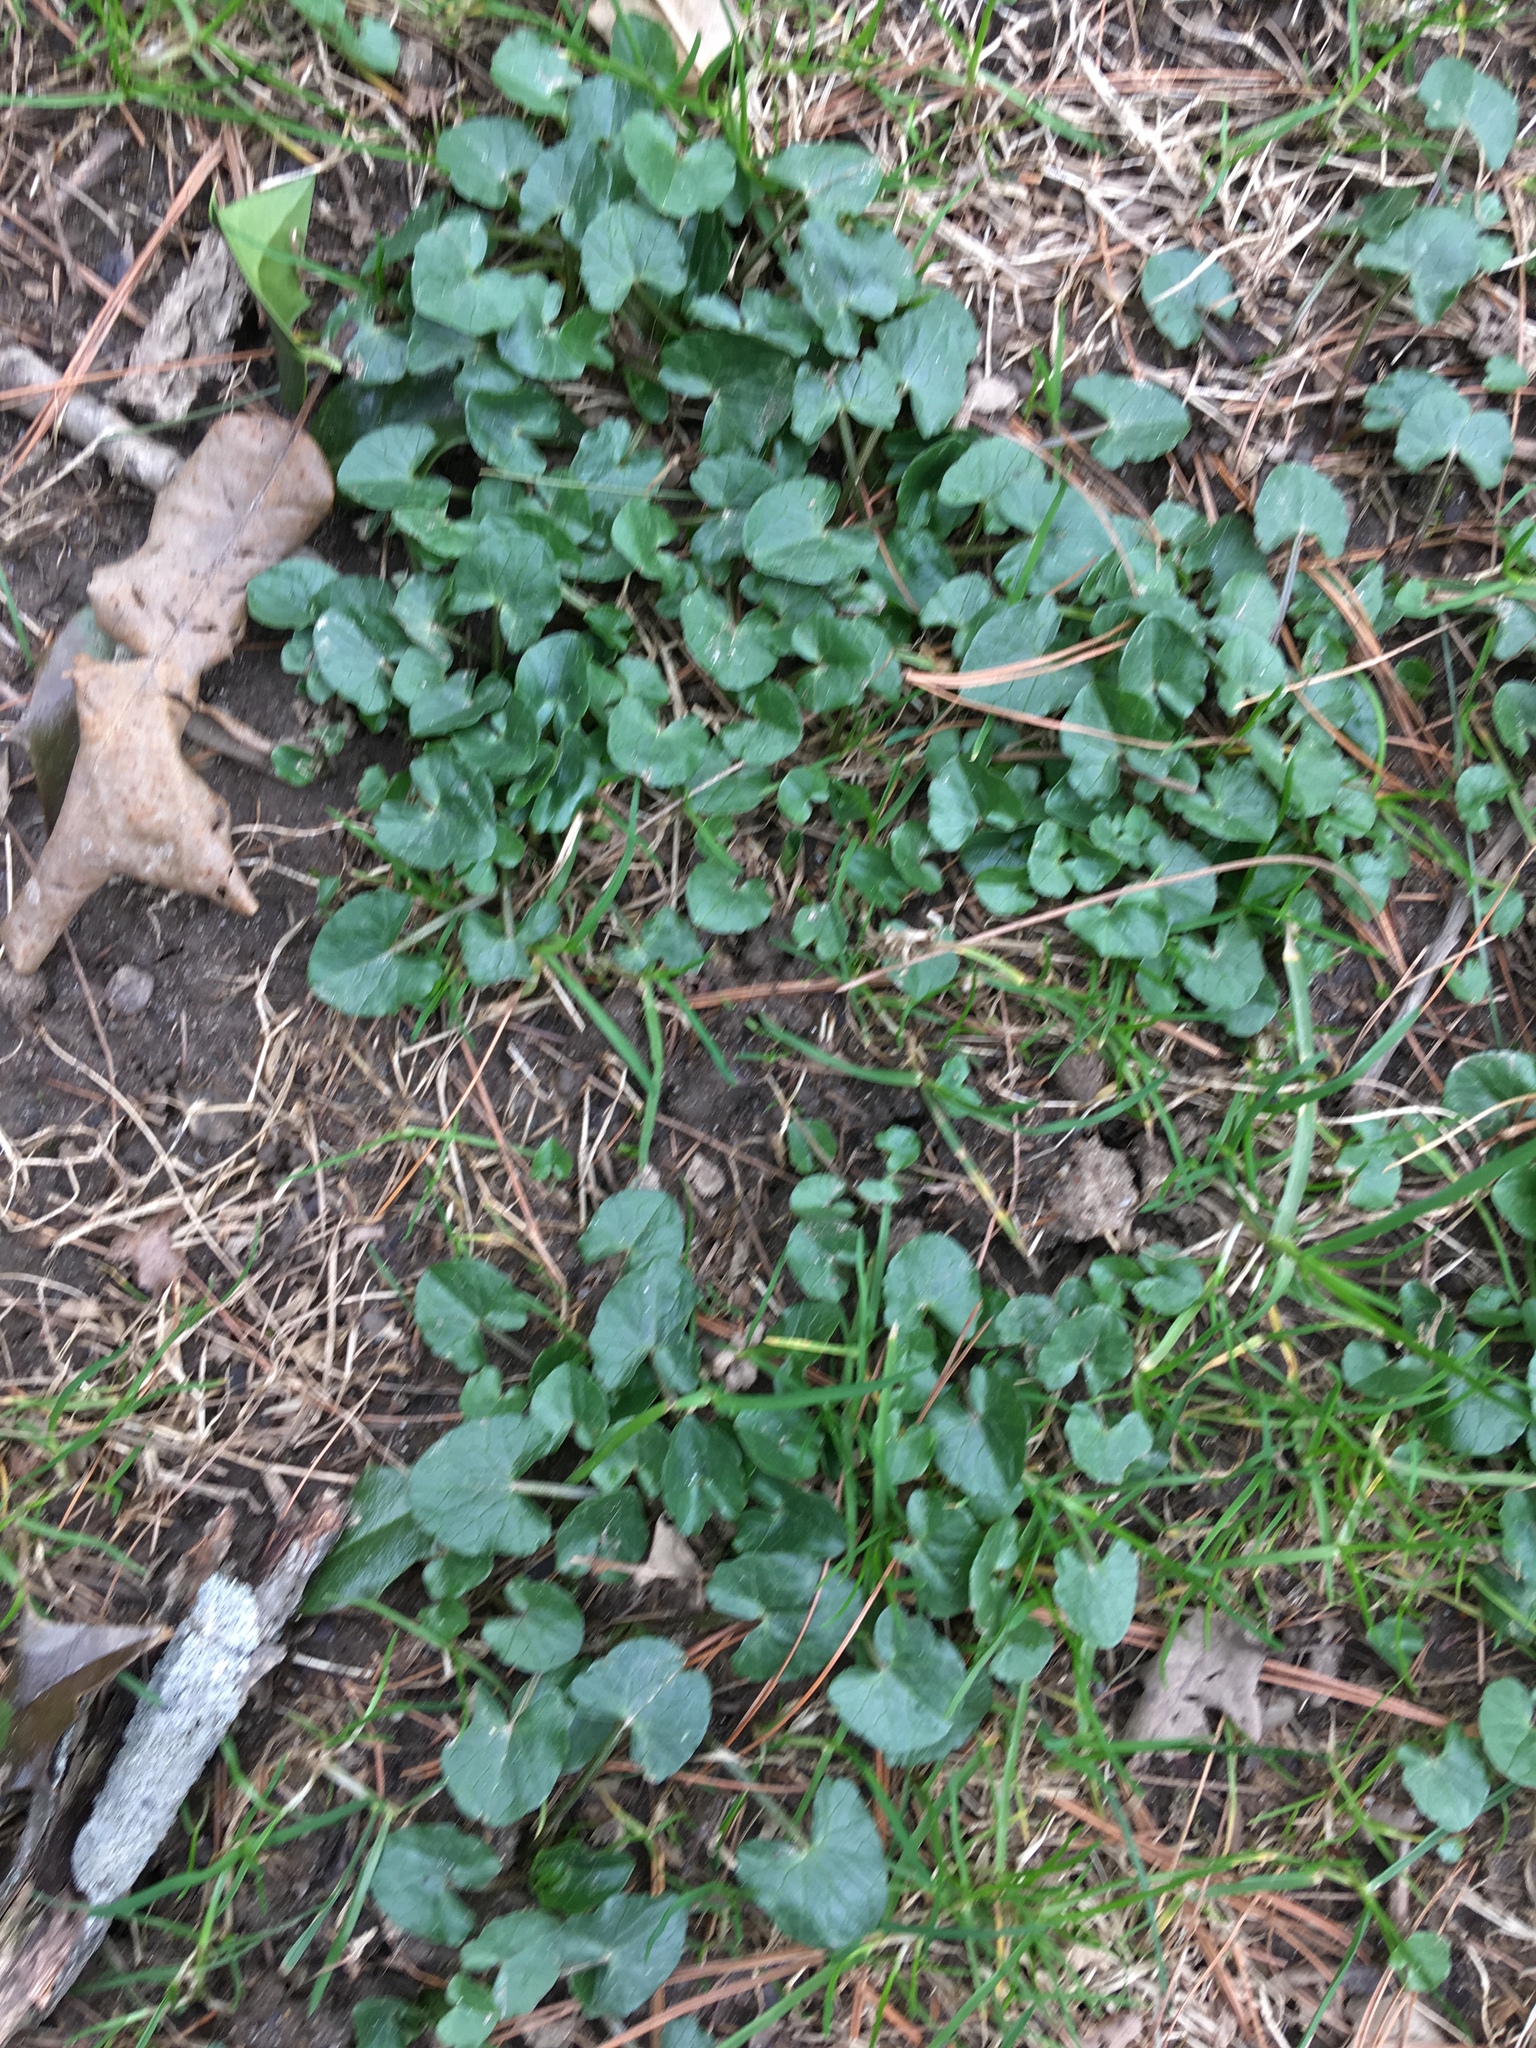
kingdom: Plantae
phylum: Tracheophyta
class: Magnoliopsida
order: Ranunculales
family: Ranunculaceae
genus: Ficaria
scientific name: Ficaria verna
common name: Lesser celandine
